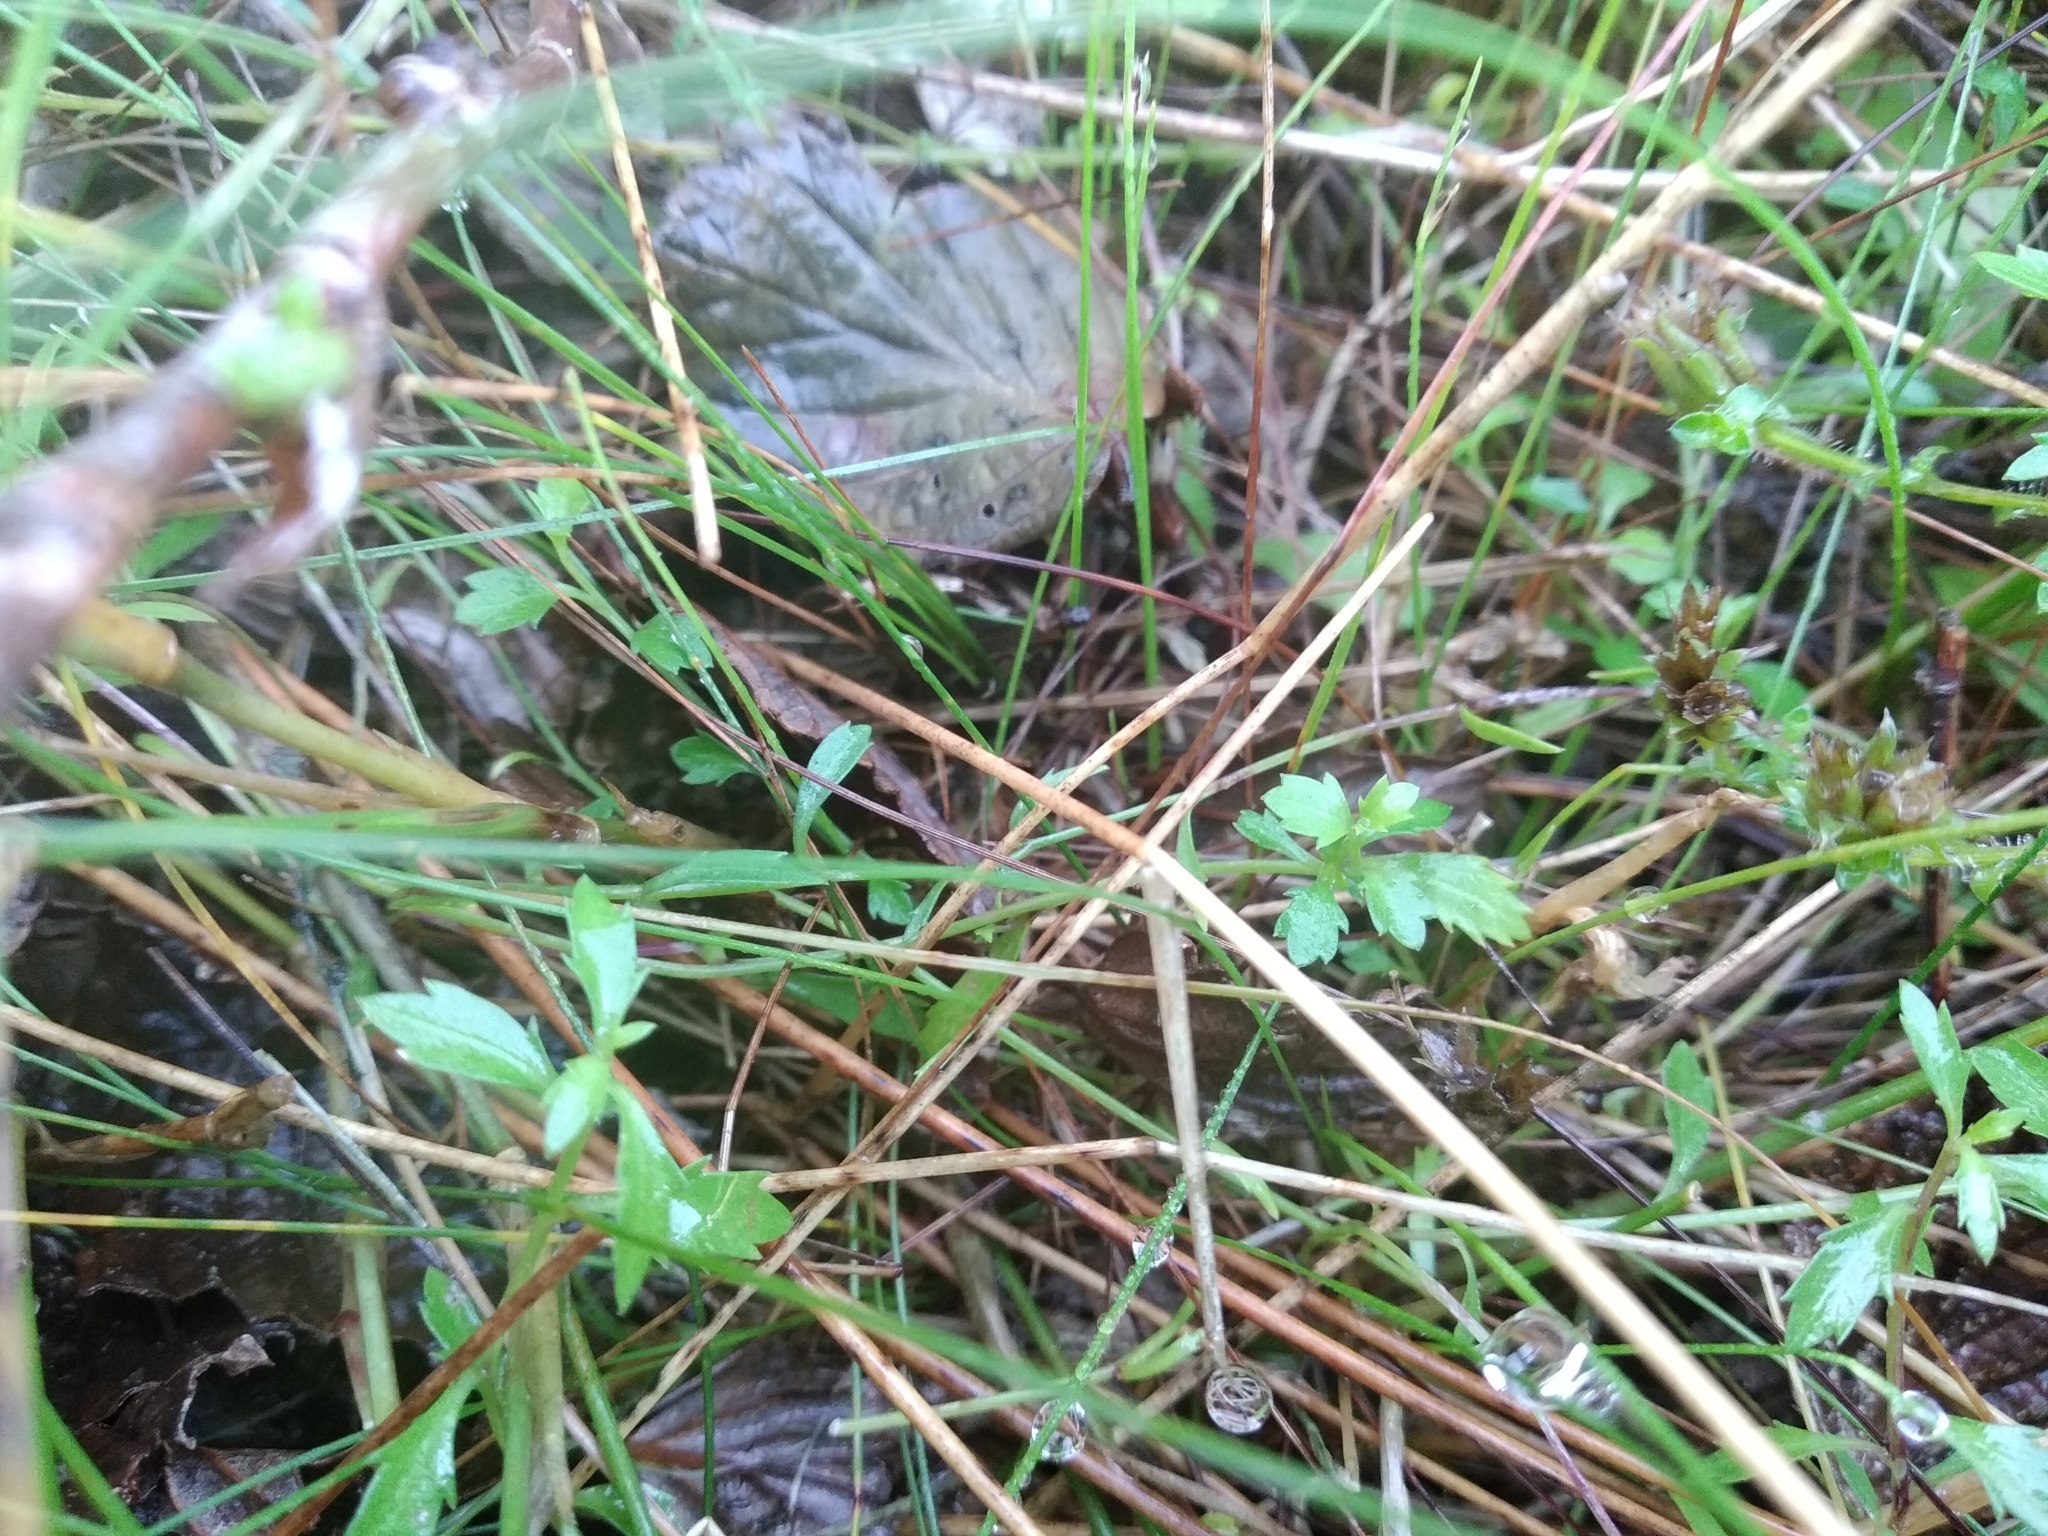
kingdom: Plantae
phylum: Tracheophyta
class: Magnoliopsida
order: Asterales
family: Campanulaceae
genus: Lobelia
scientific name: Lobelia eckloniana
